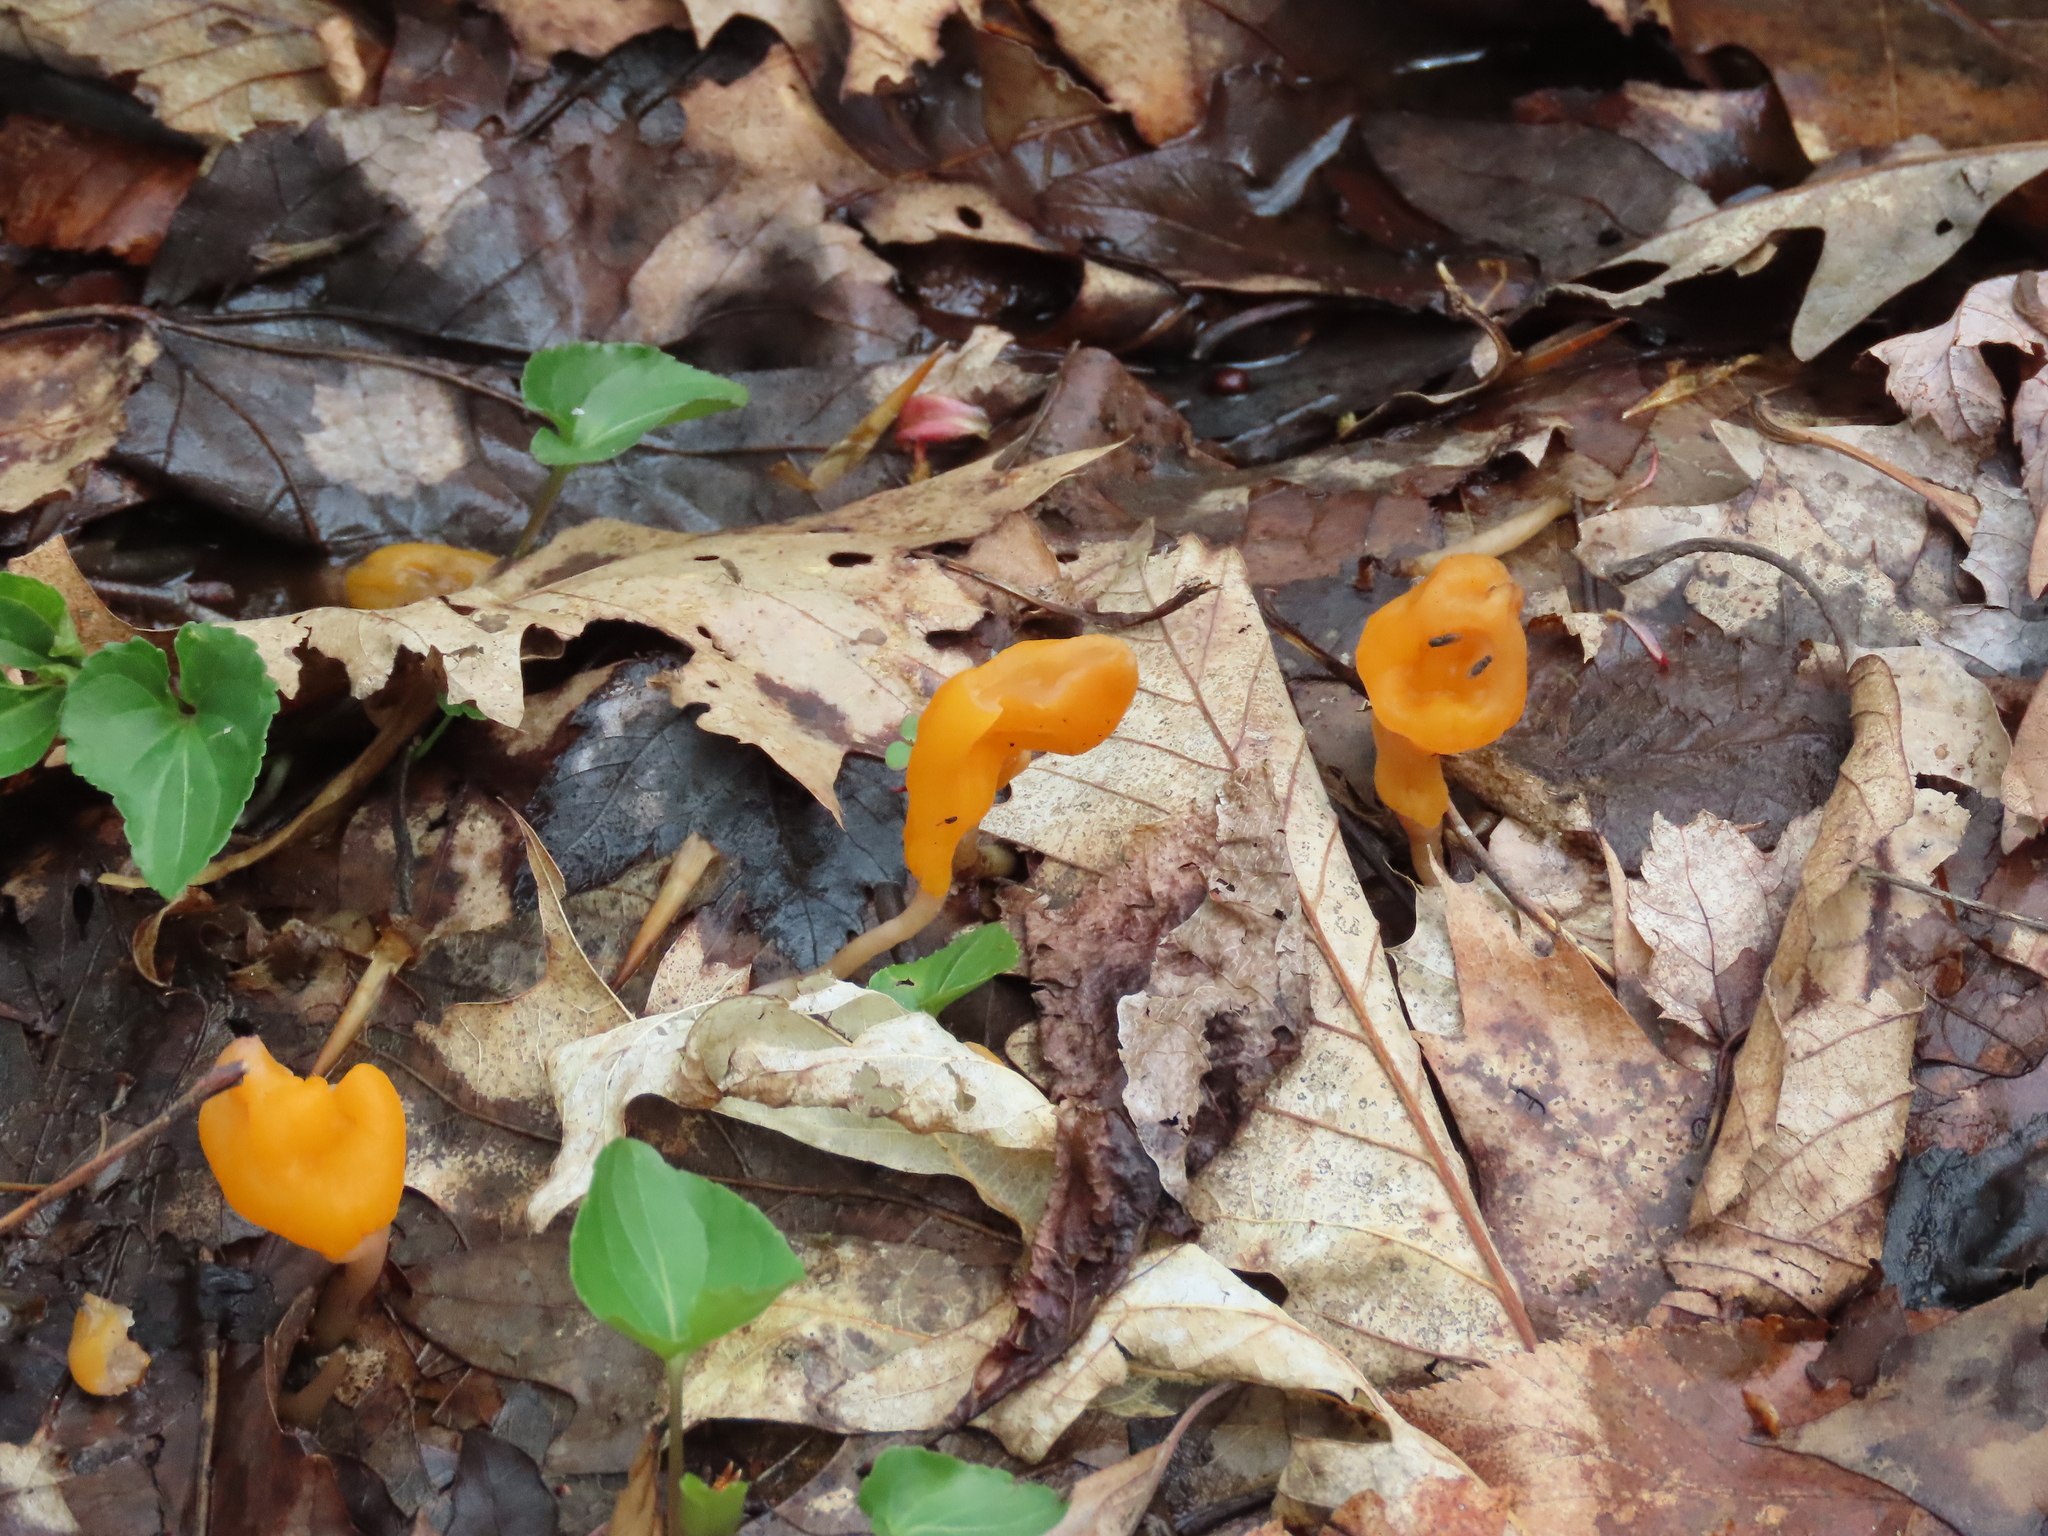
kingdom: Fungi
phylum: Ascomycota
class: Leotiomycetes
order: Helotiales
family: Sclerotiniaceae
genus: Mitrula
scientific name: Mitrula elegans
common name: Swamp beacon
